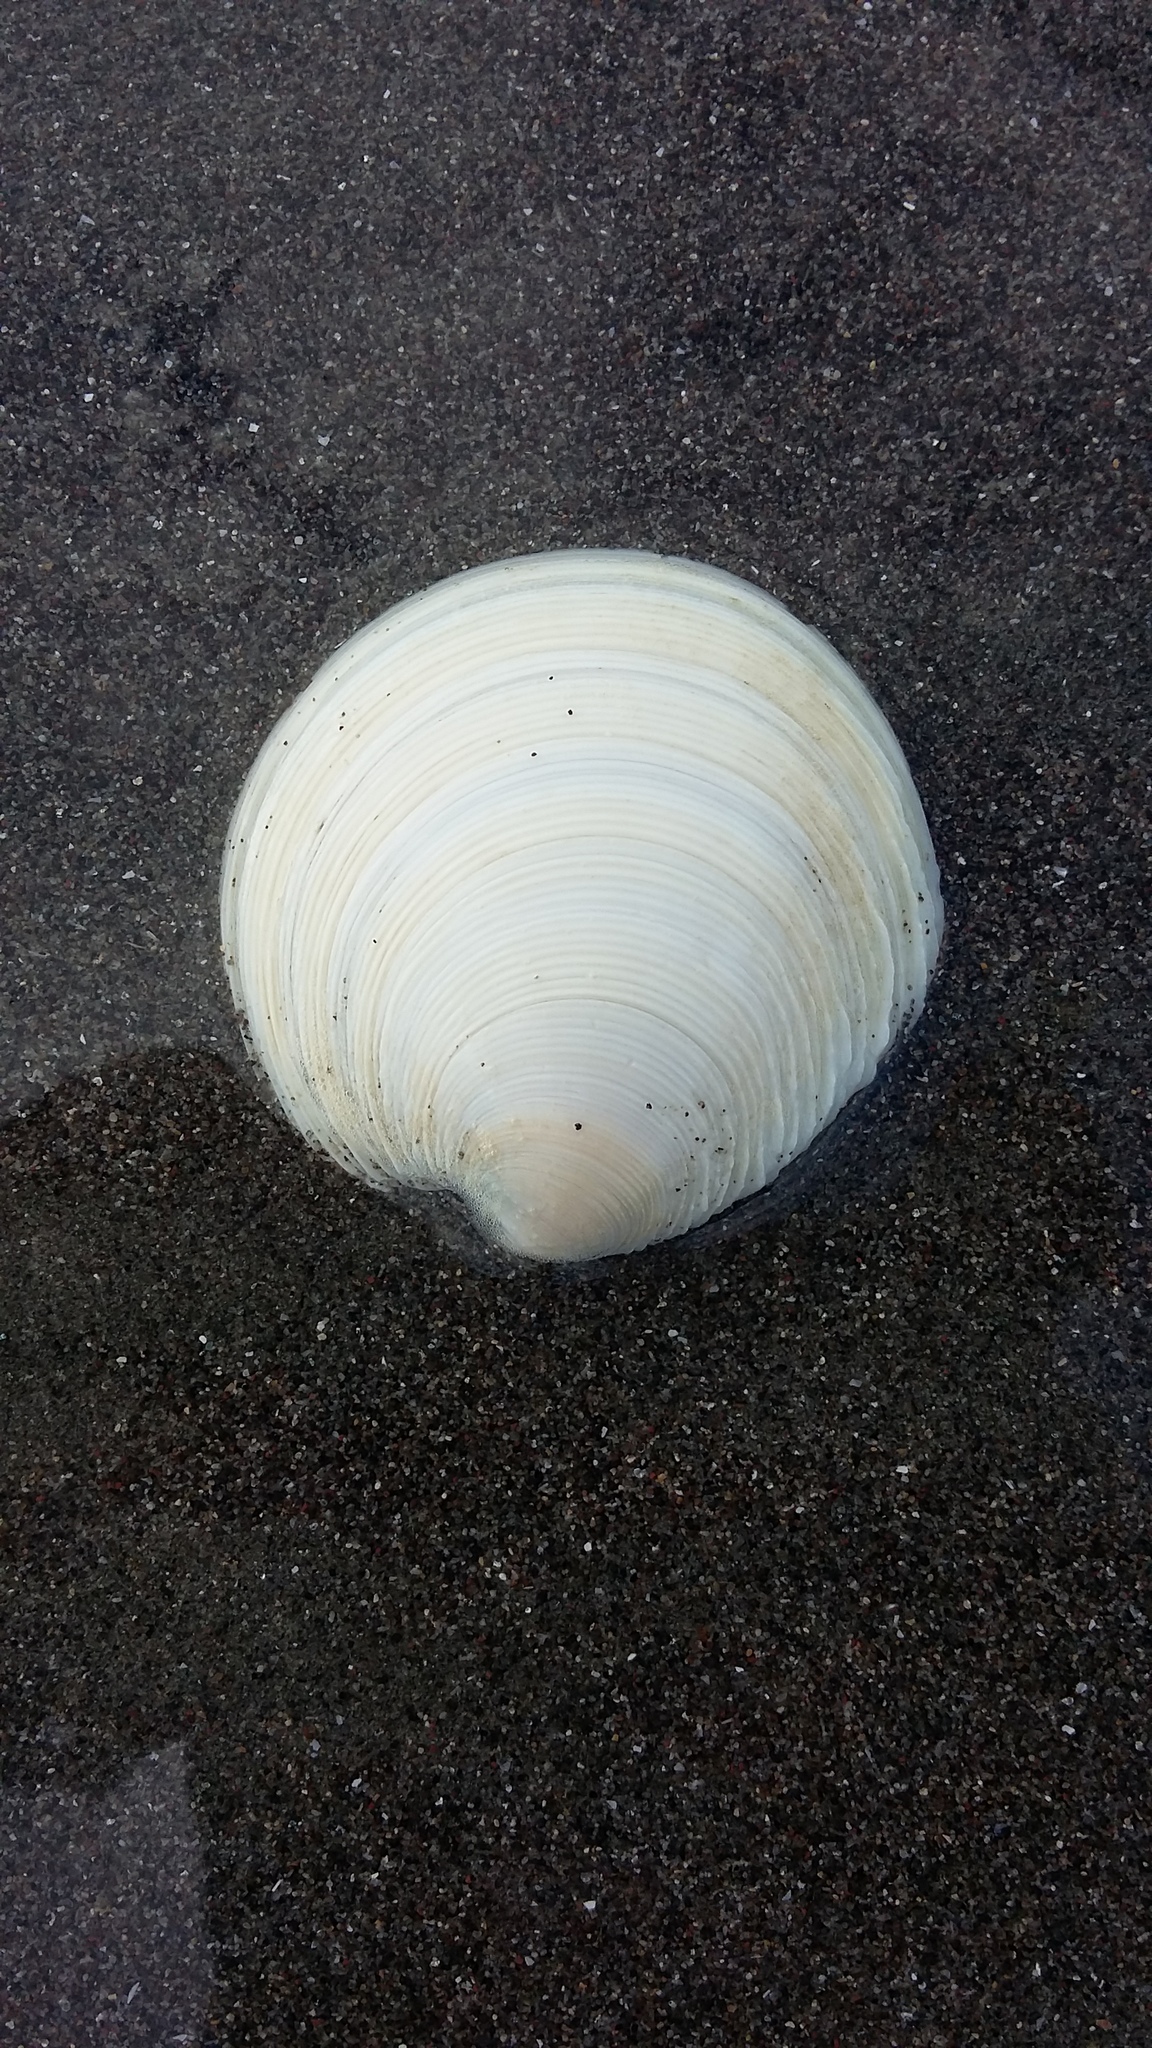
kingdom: Animalia
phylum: Mollusca
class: Bivalvia
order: Venerida
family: Veneridae
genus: Dosinia
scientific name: Dosinia anus
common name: Old-woman dosinia
